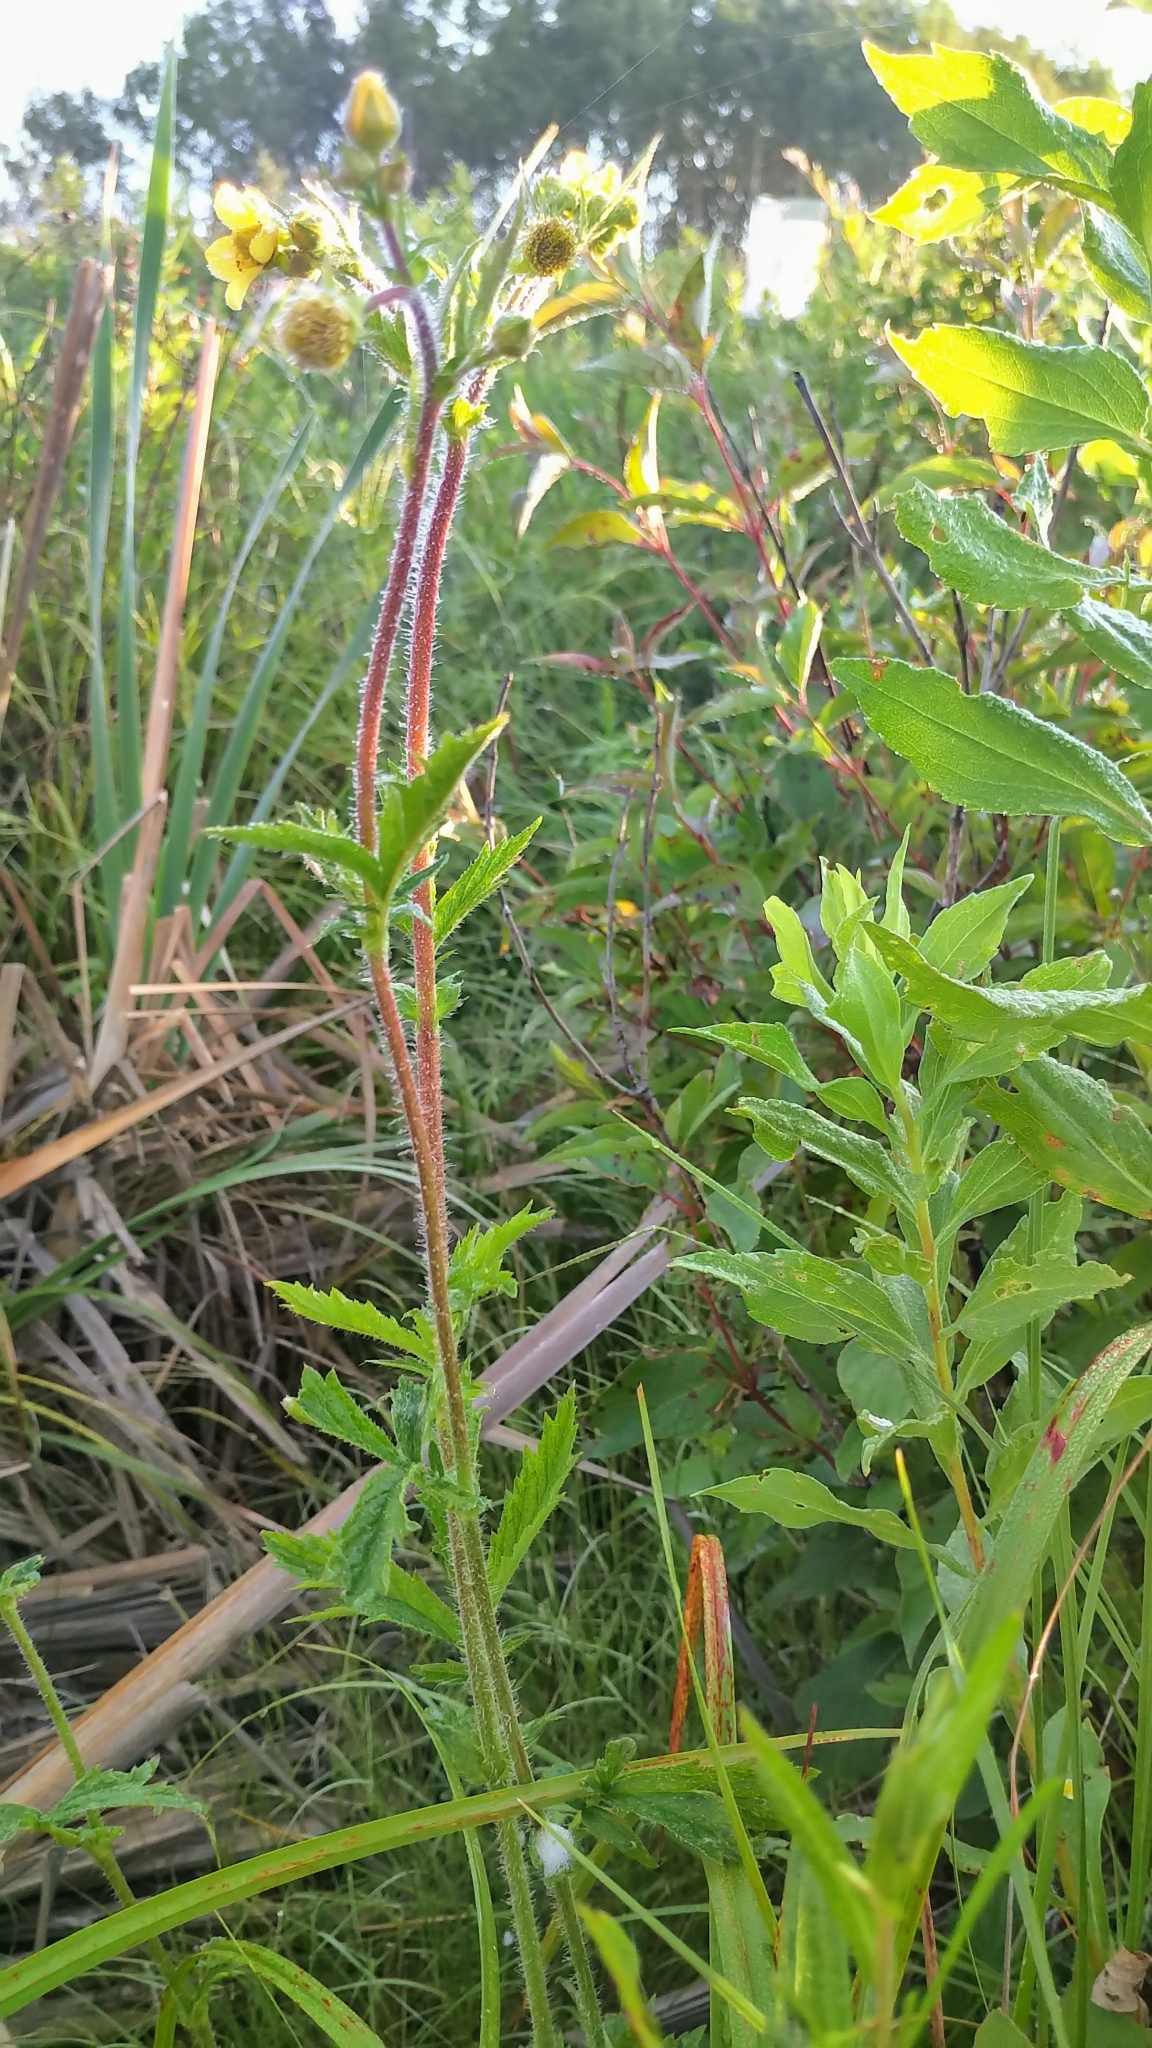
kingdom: Plantae
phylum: Tracheophyta
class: Magnoliopsida
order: Rosales
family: Rosaceae
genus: Geum
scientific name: Geum aleppicum
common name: Yellow avens
